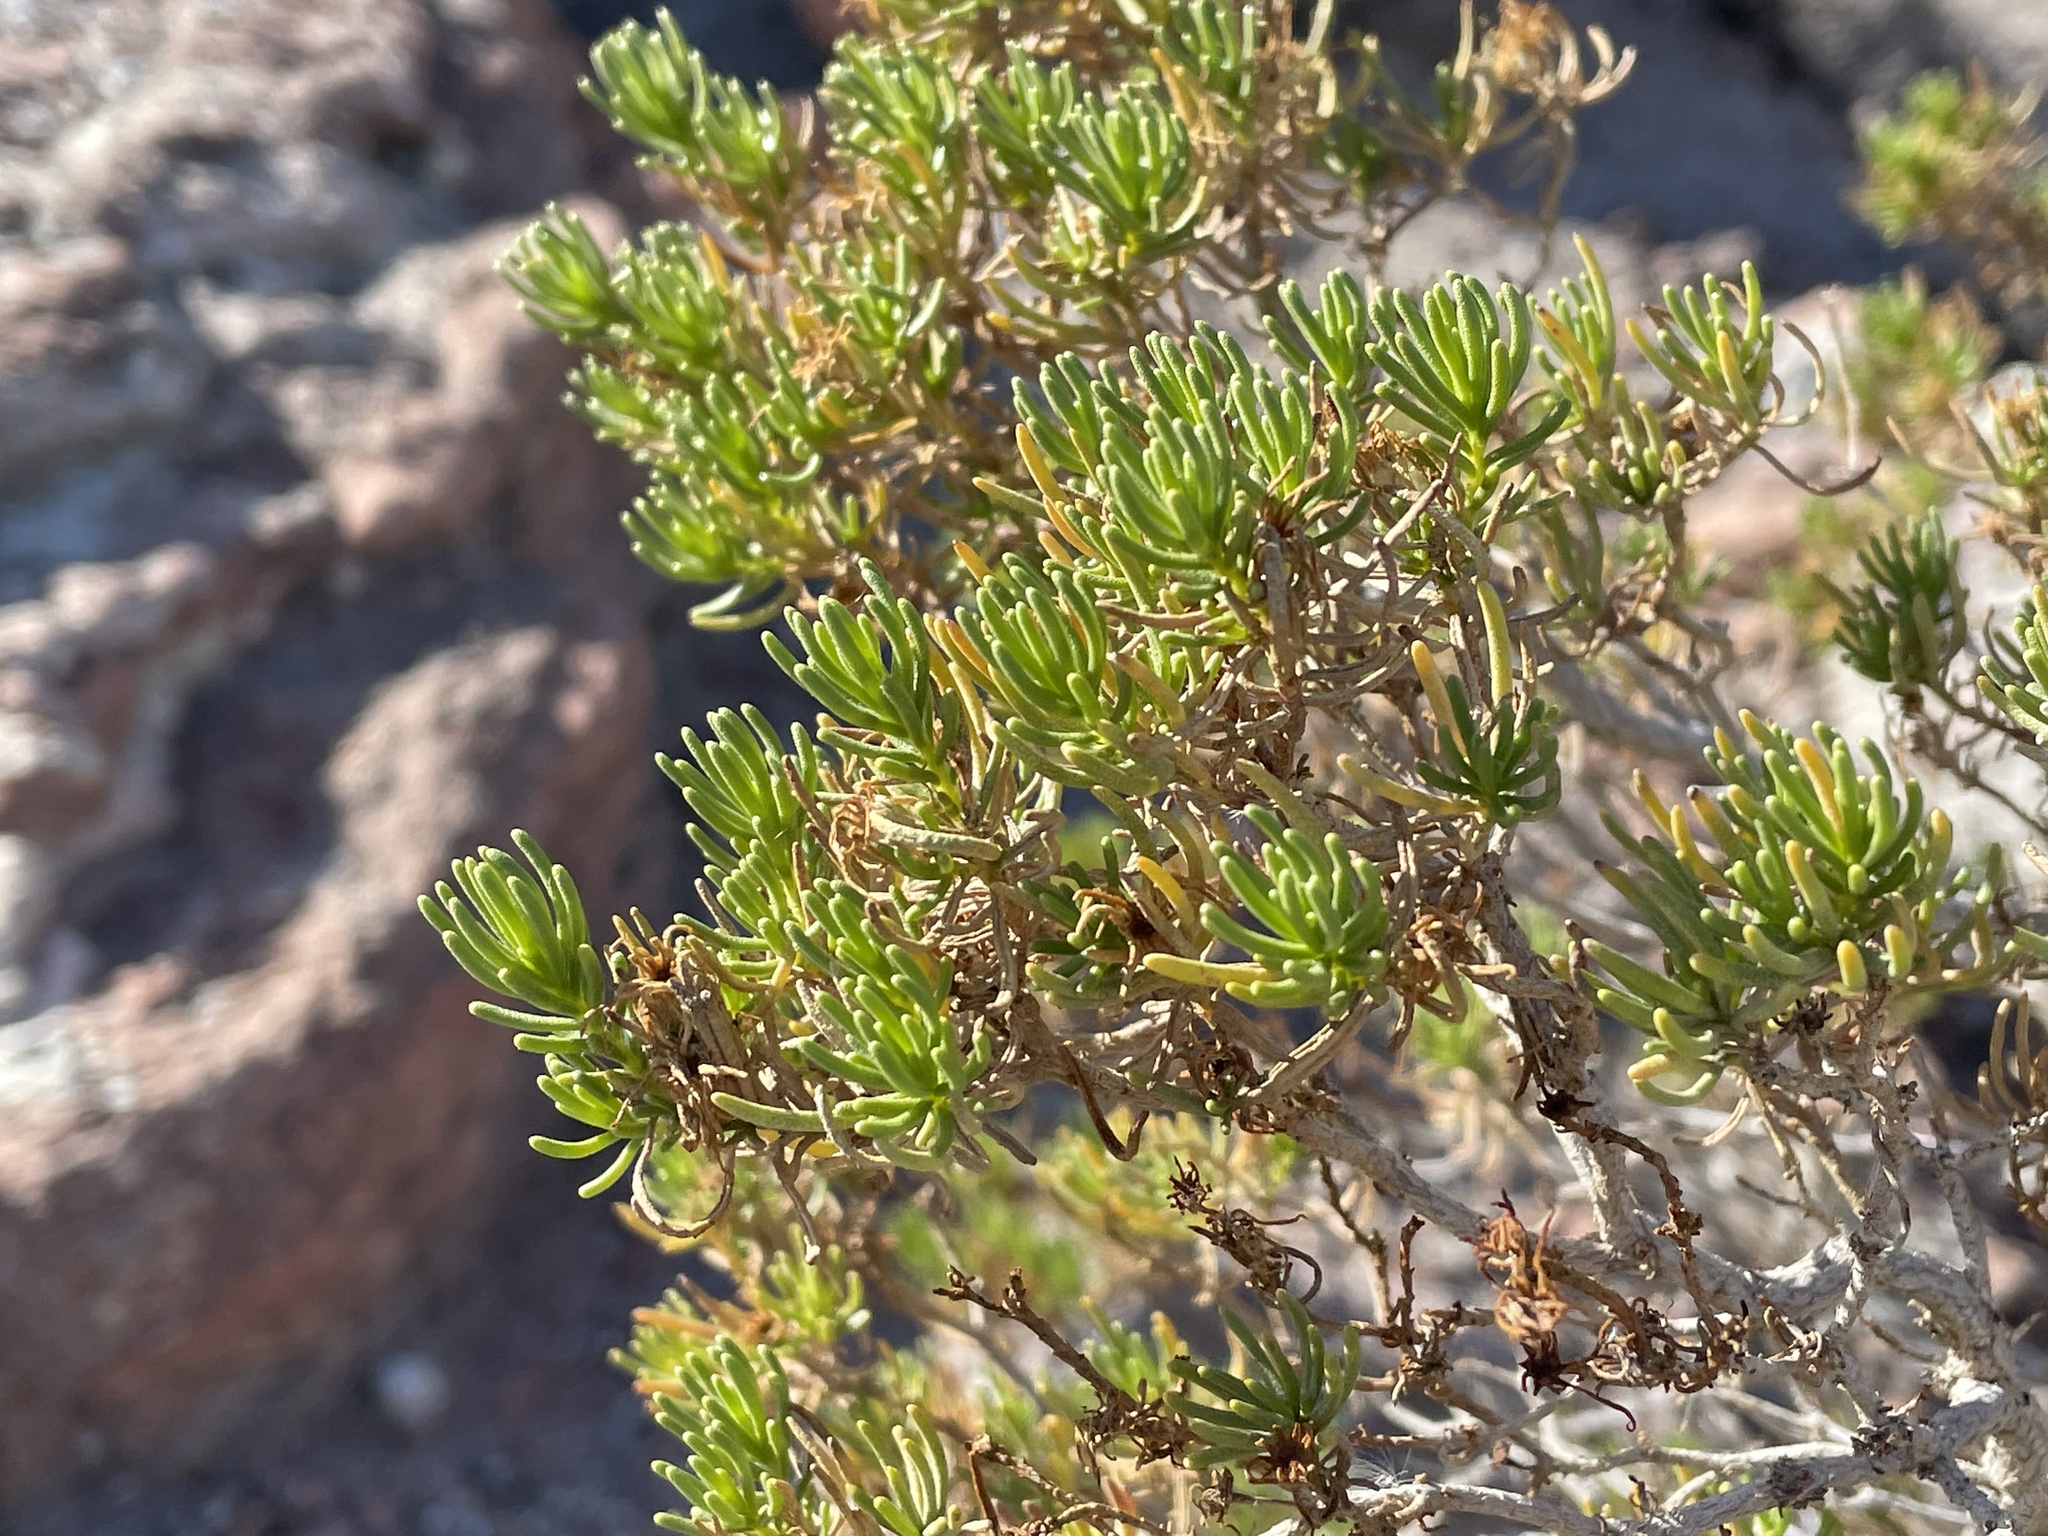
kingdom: Plantae
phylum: Tracheophyta
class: Magnoliopsida
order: Asterales
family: Asteraceae
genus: Peucephyllum
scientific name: Peucephyllum schottii
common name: Pygmy-cedar
